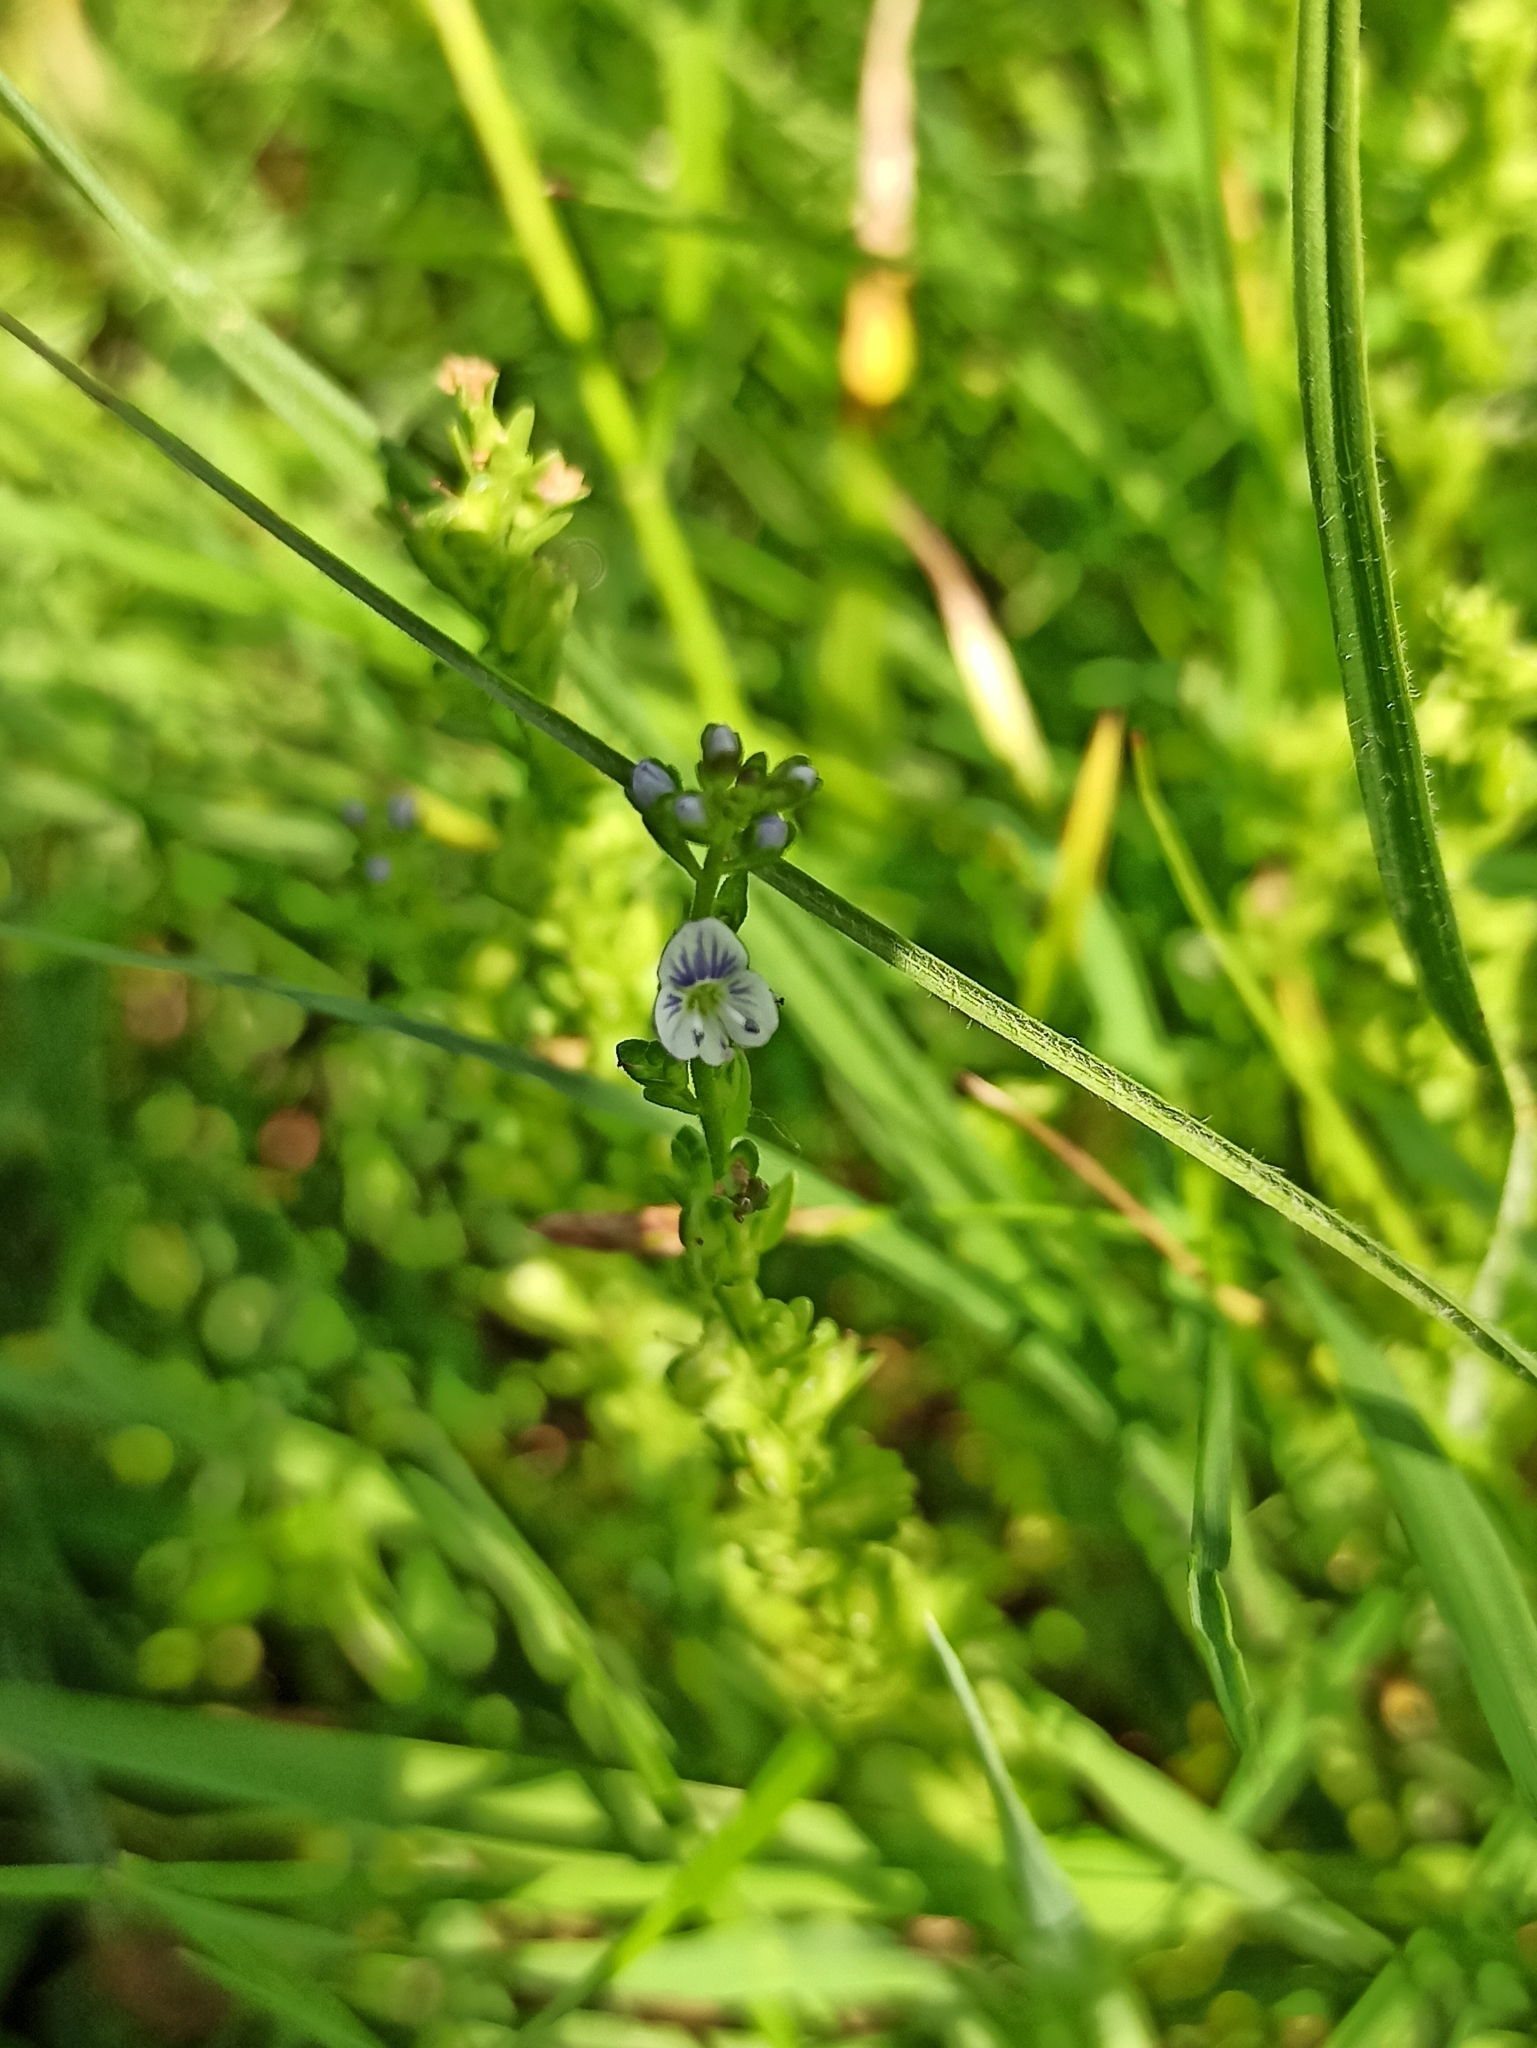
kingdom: Plantae
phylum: Tracheophyta
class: Magnoliopsida
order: Lamiales
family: Plantaginaceae
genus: Veronica
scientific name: Veronica serpyllifolia
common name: Thyme-leaved speedwell
